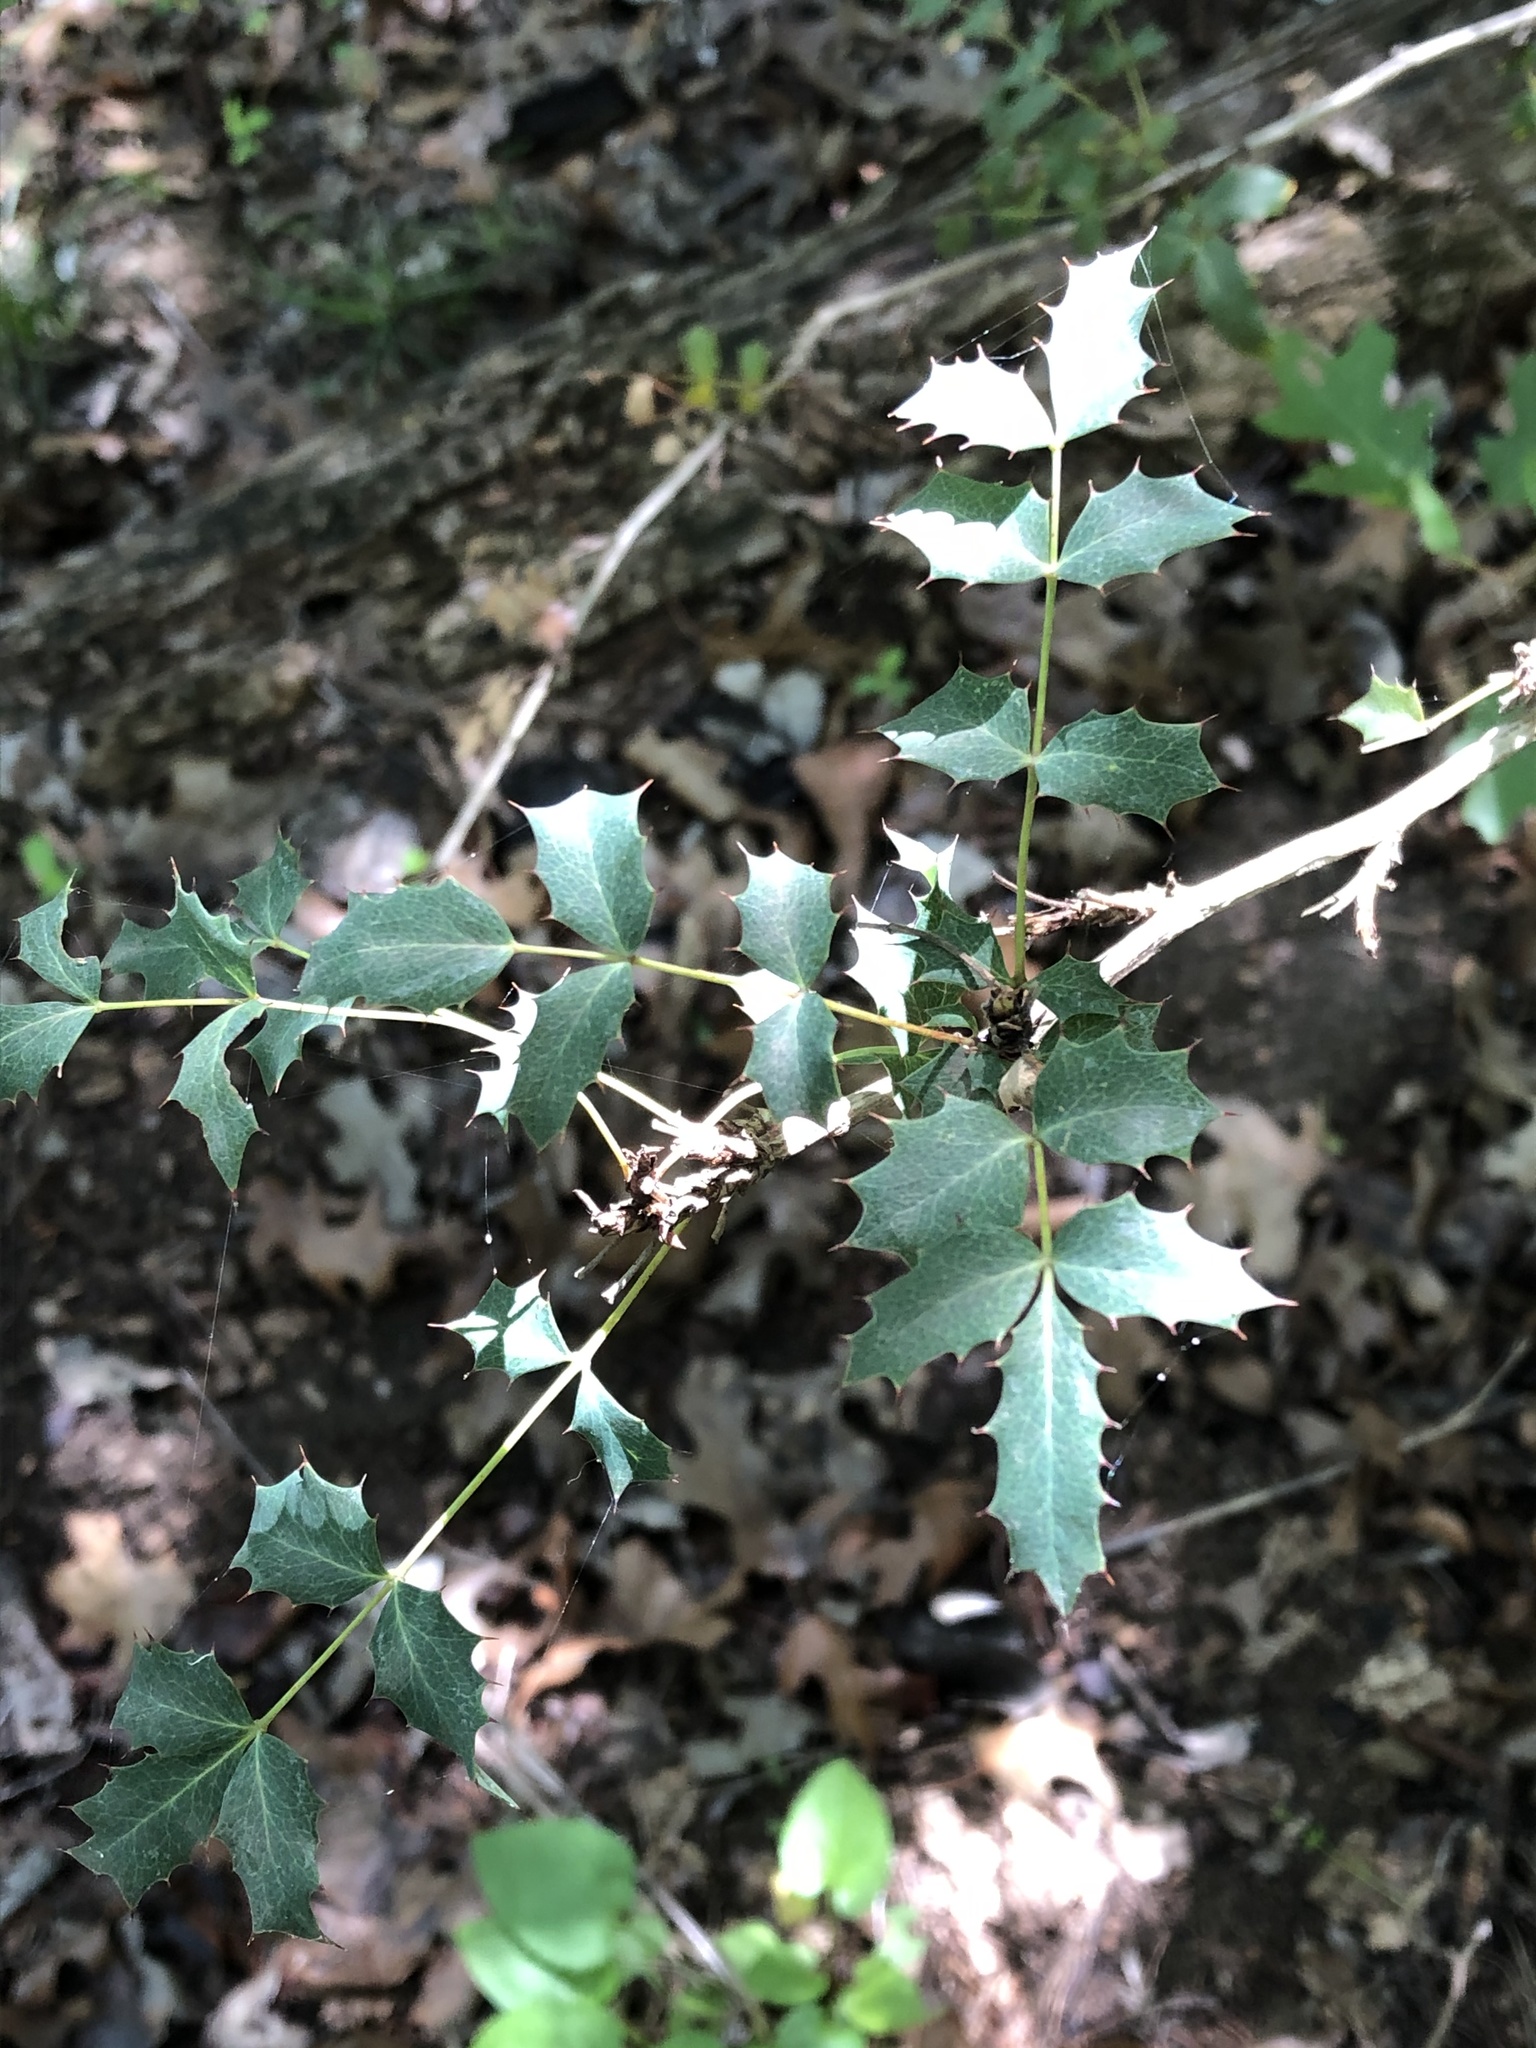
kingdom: Plantae
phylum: Tracheophyta
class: Magnoliopsida
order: Ranunculales
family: Berberidaceae
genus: Berberis
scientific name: Berberis swaseyi
